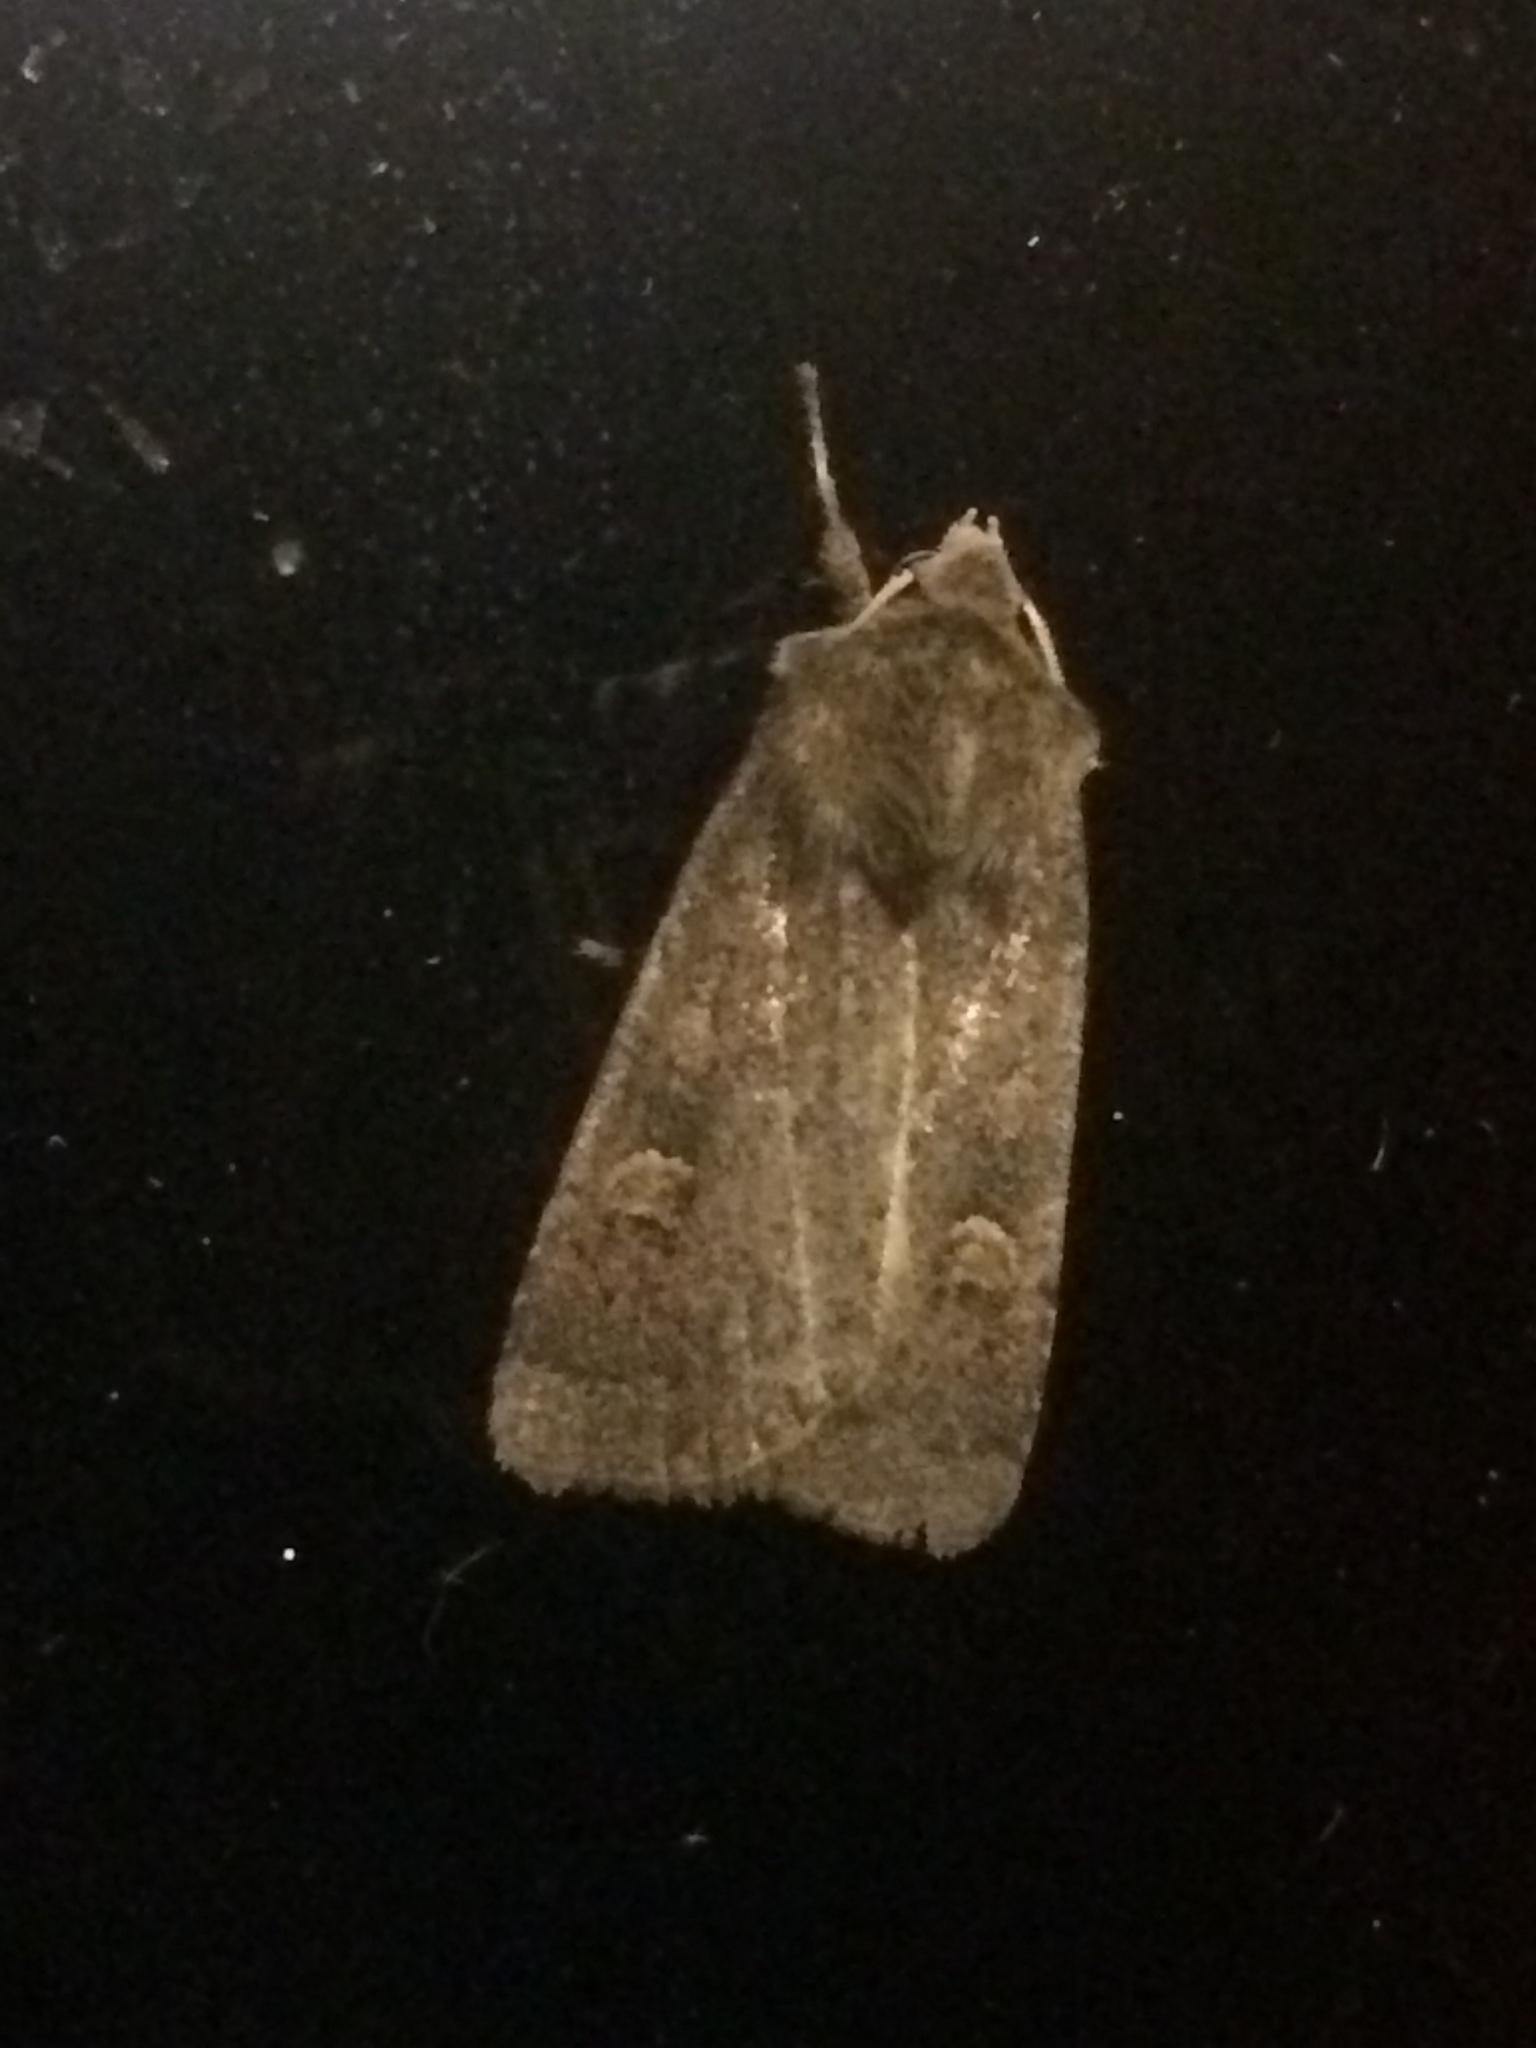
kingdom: Animalia
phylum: Arthropoda
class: Insecta
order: Lepidoptera
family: Noctuidae
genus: Xestia
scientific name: Xestia xanthographa
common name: Square-spot rustic
